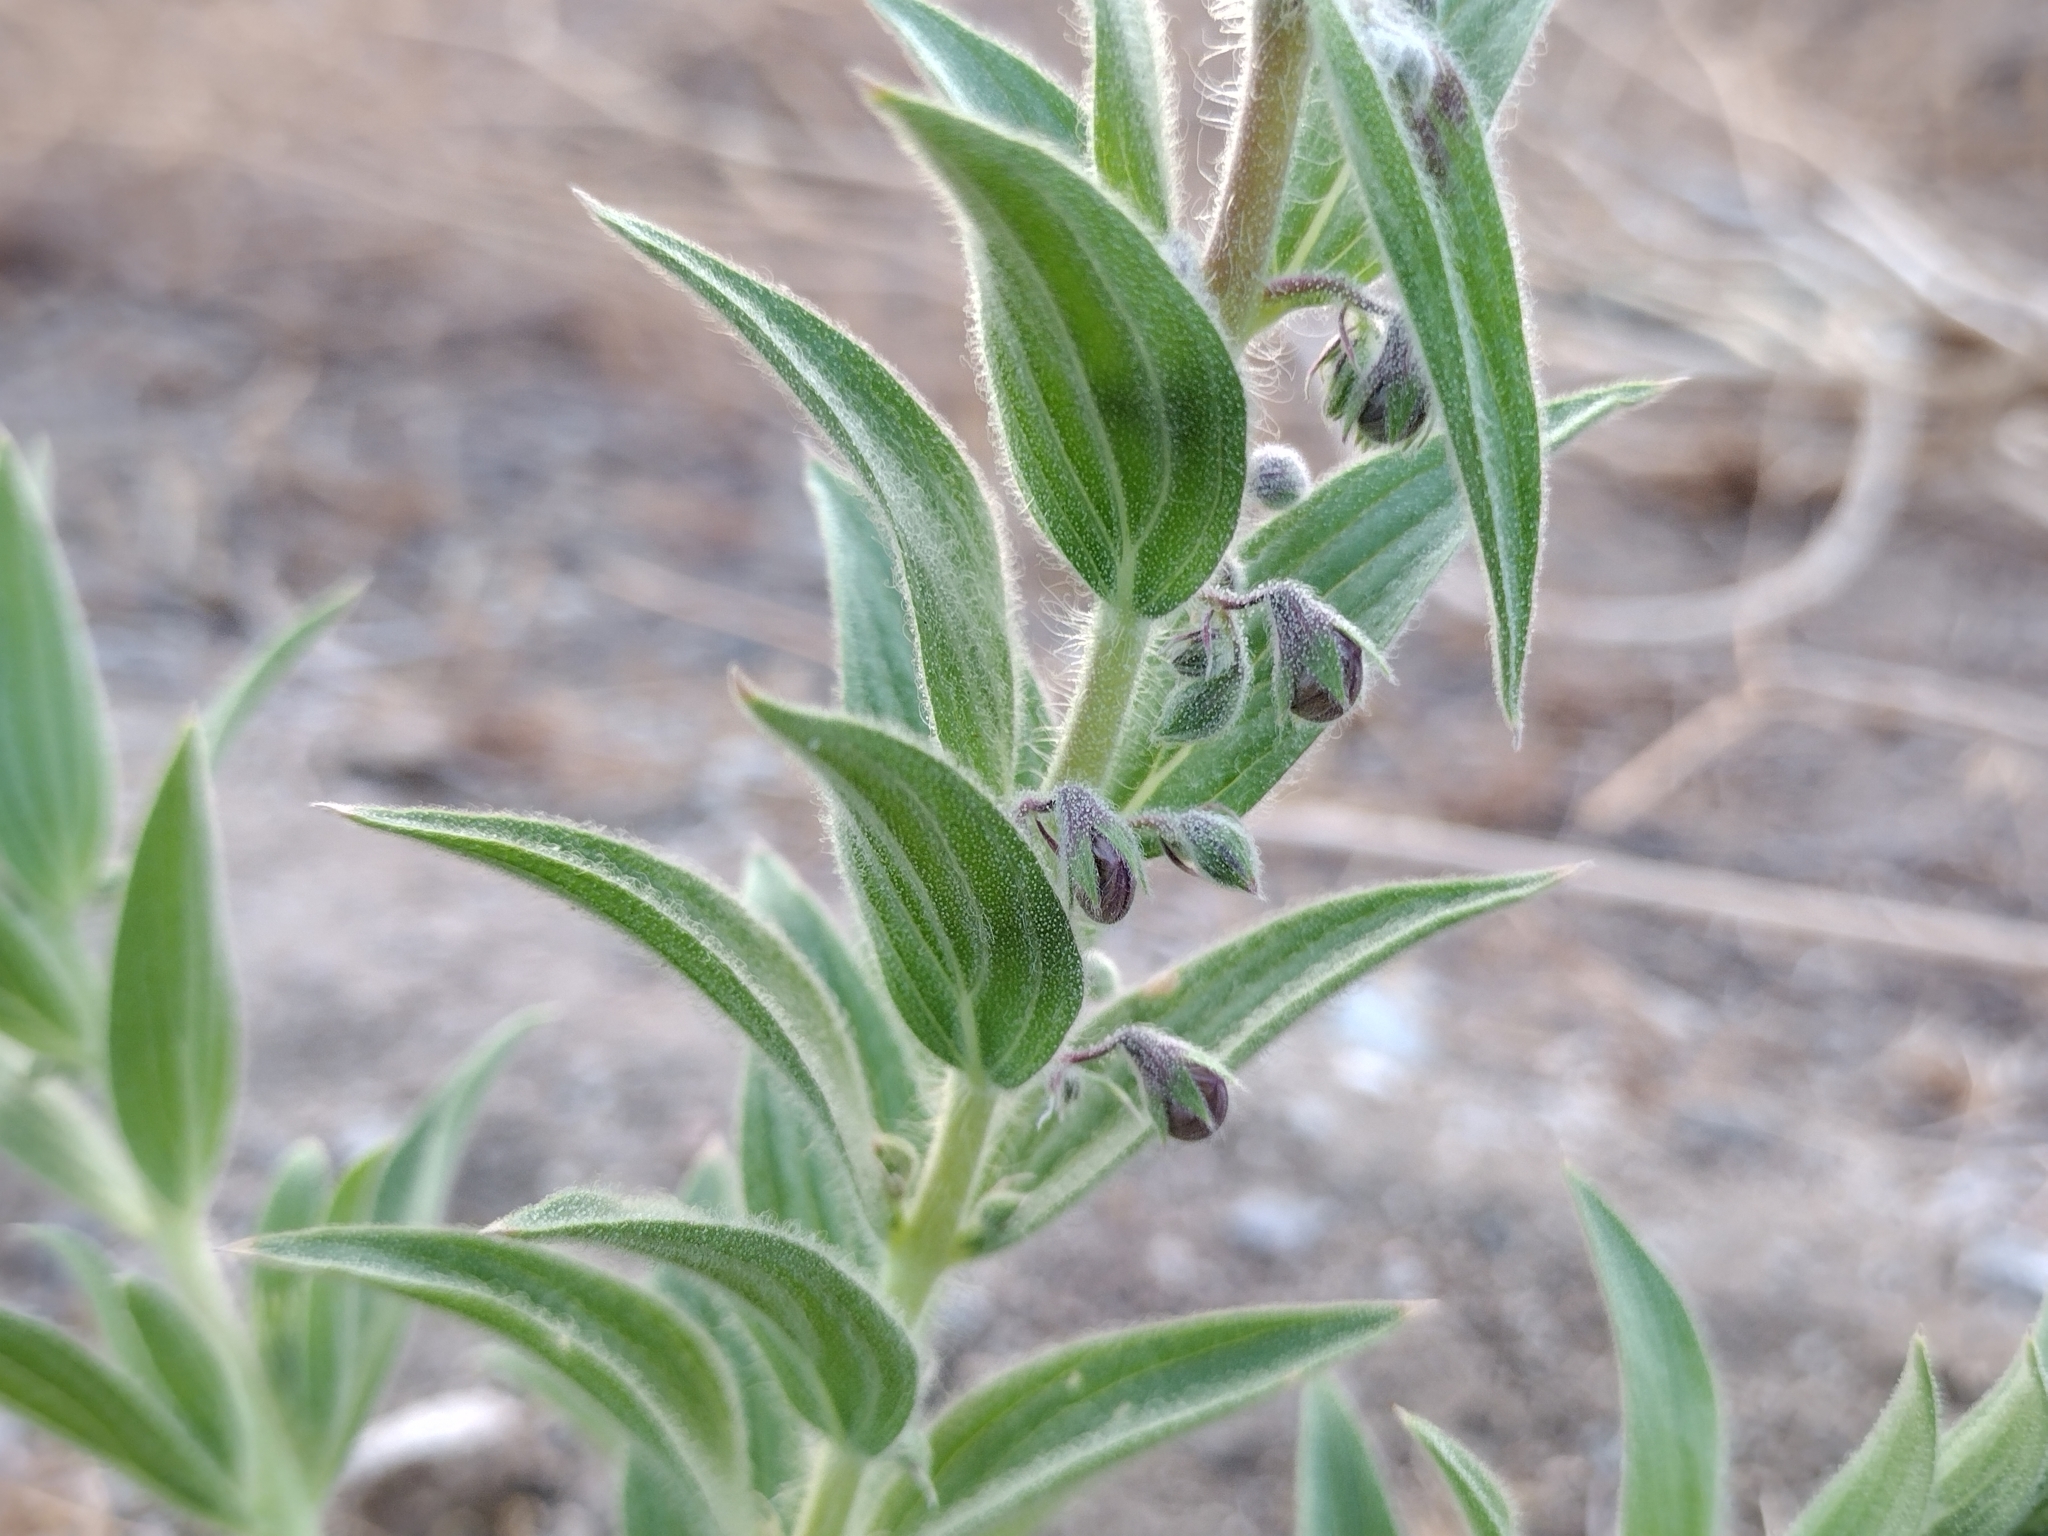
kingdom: Plantae
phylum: Tracheophyta
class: Magnoliopsida
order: Lamiales
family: Lamiaceae
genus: Trichostema
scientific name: Trichostema lanceolatum
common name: Vinegar-weed
